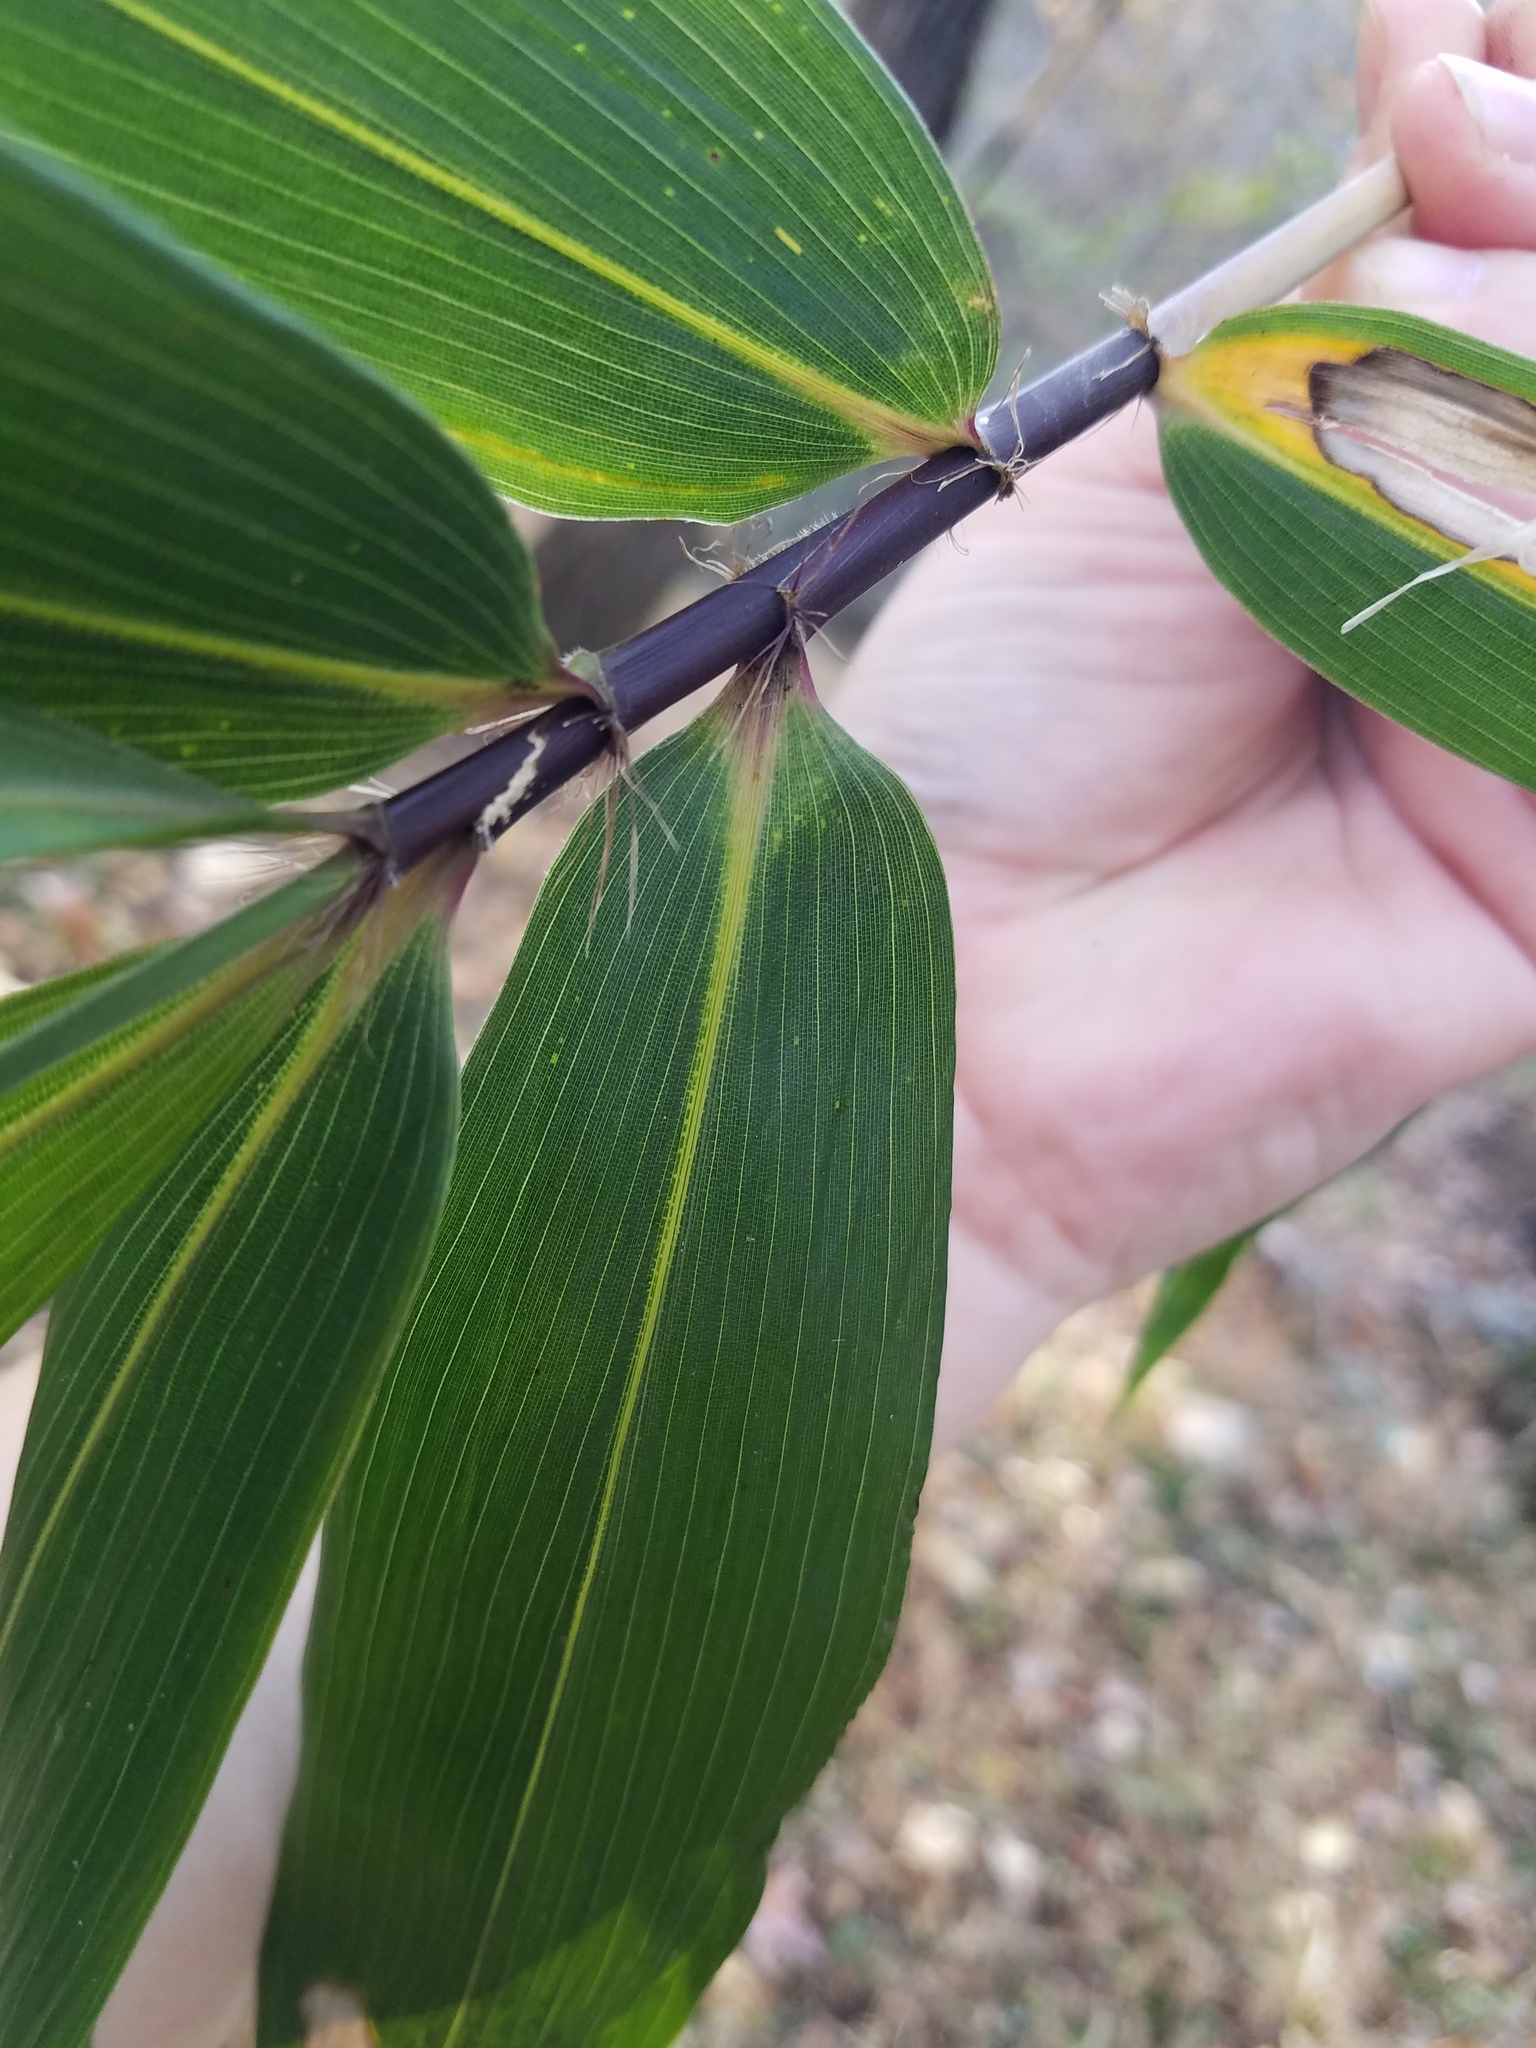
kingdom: Plantae
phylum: Tracheophyta
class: Liliopsida
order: Poales
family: Poaceae
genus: Arundinaria
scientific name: Arundinaria gigantea
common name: Giant cane
